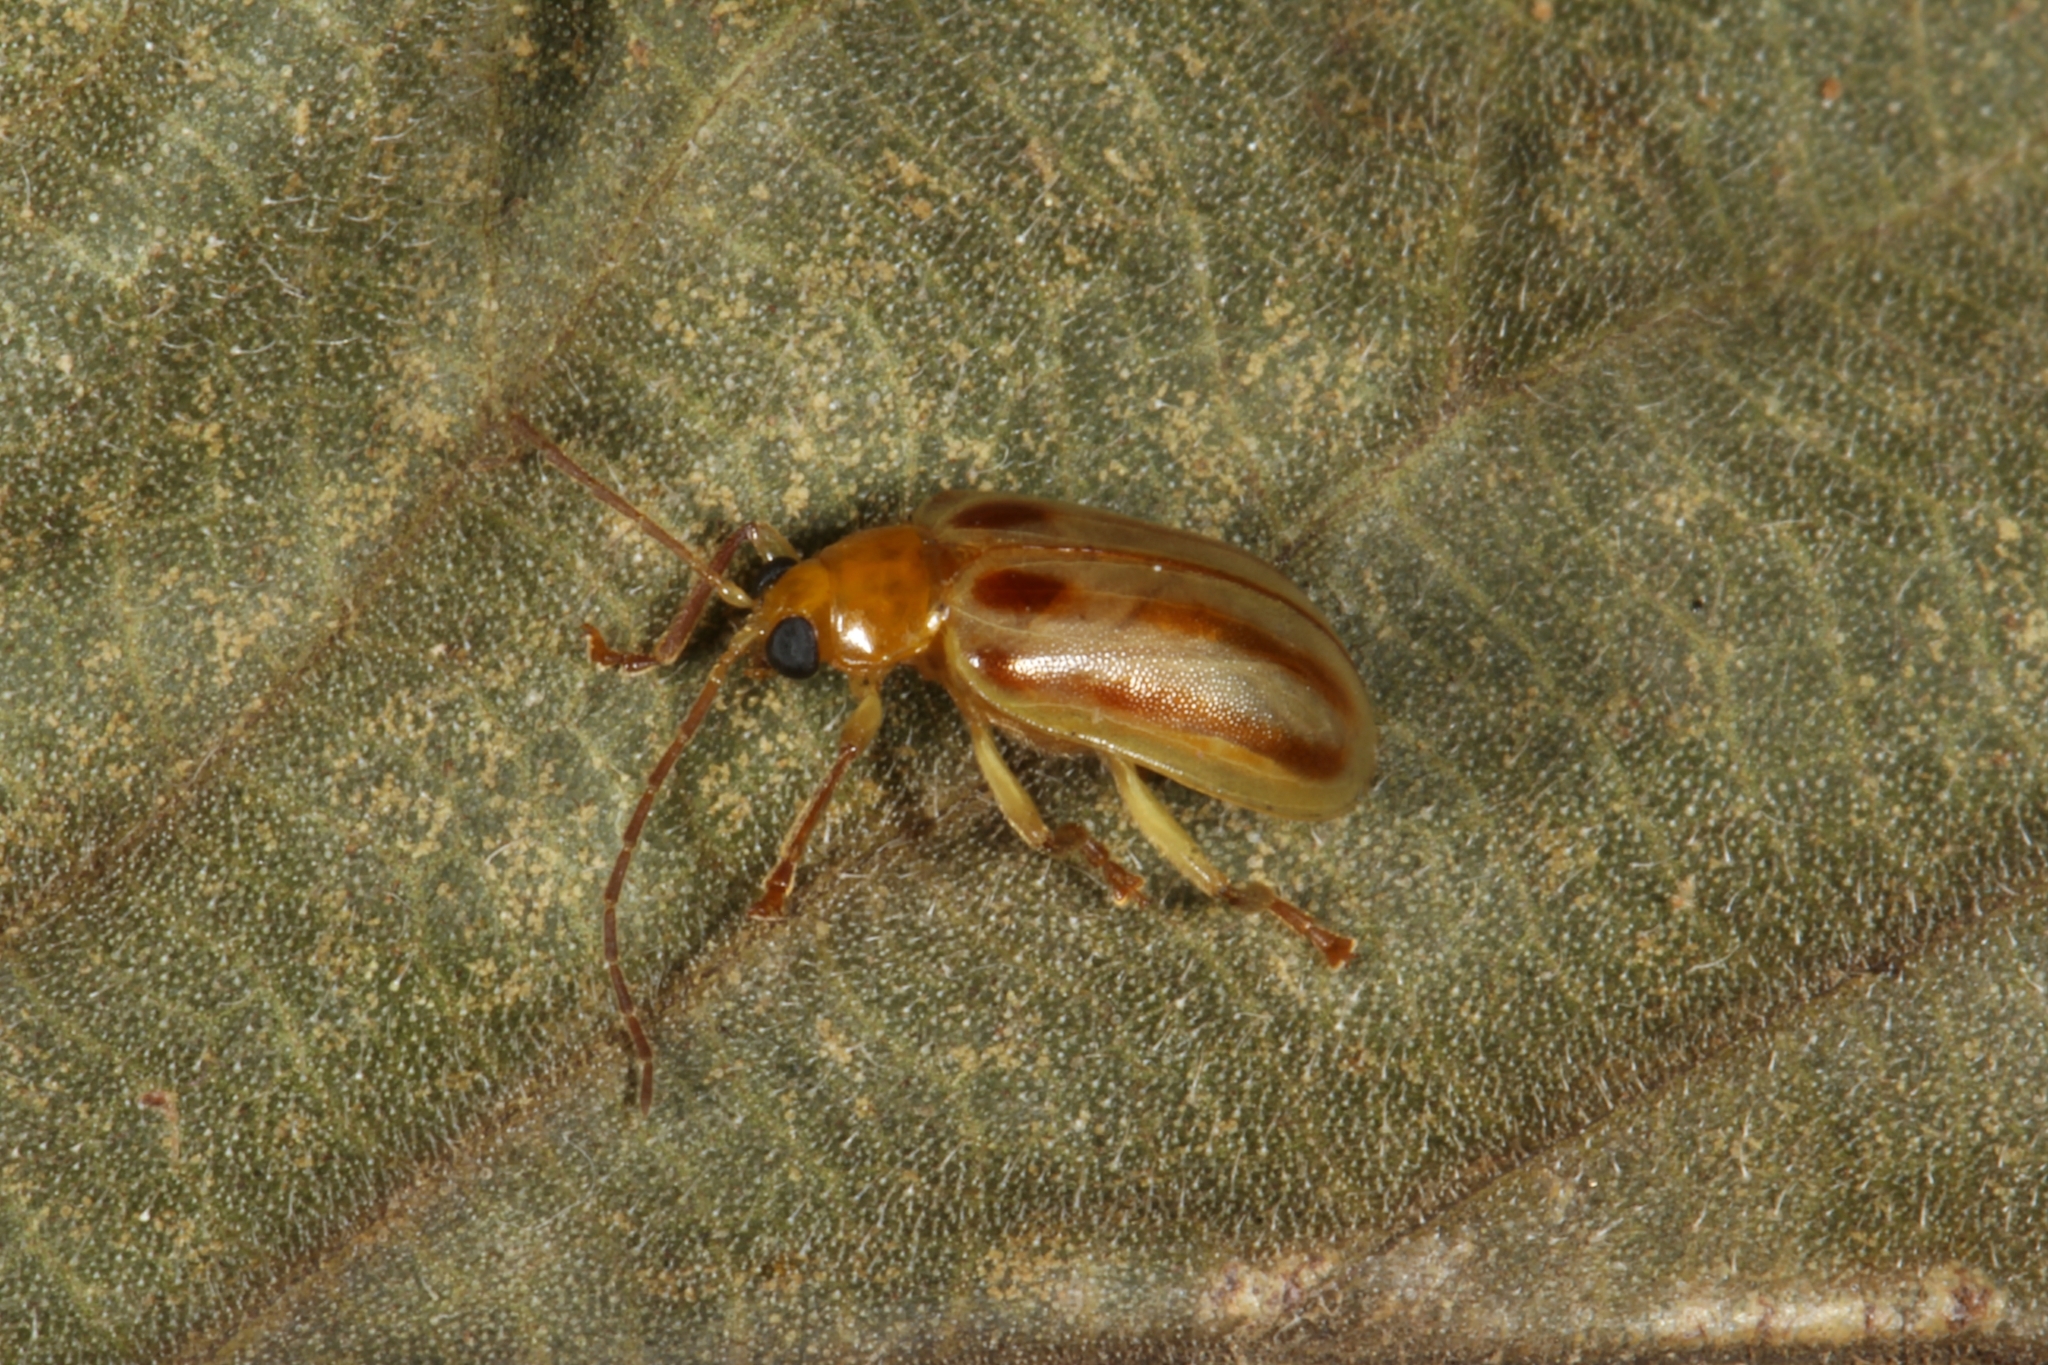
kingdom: Animalia
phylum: Arthropoda
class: Insecta
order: Coleoptera
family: Chrysomelidae
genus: Pyesia
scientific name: Pyesia detrita
